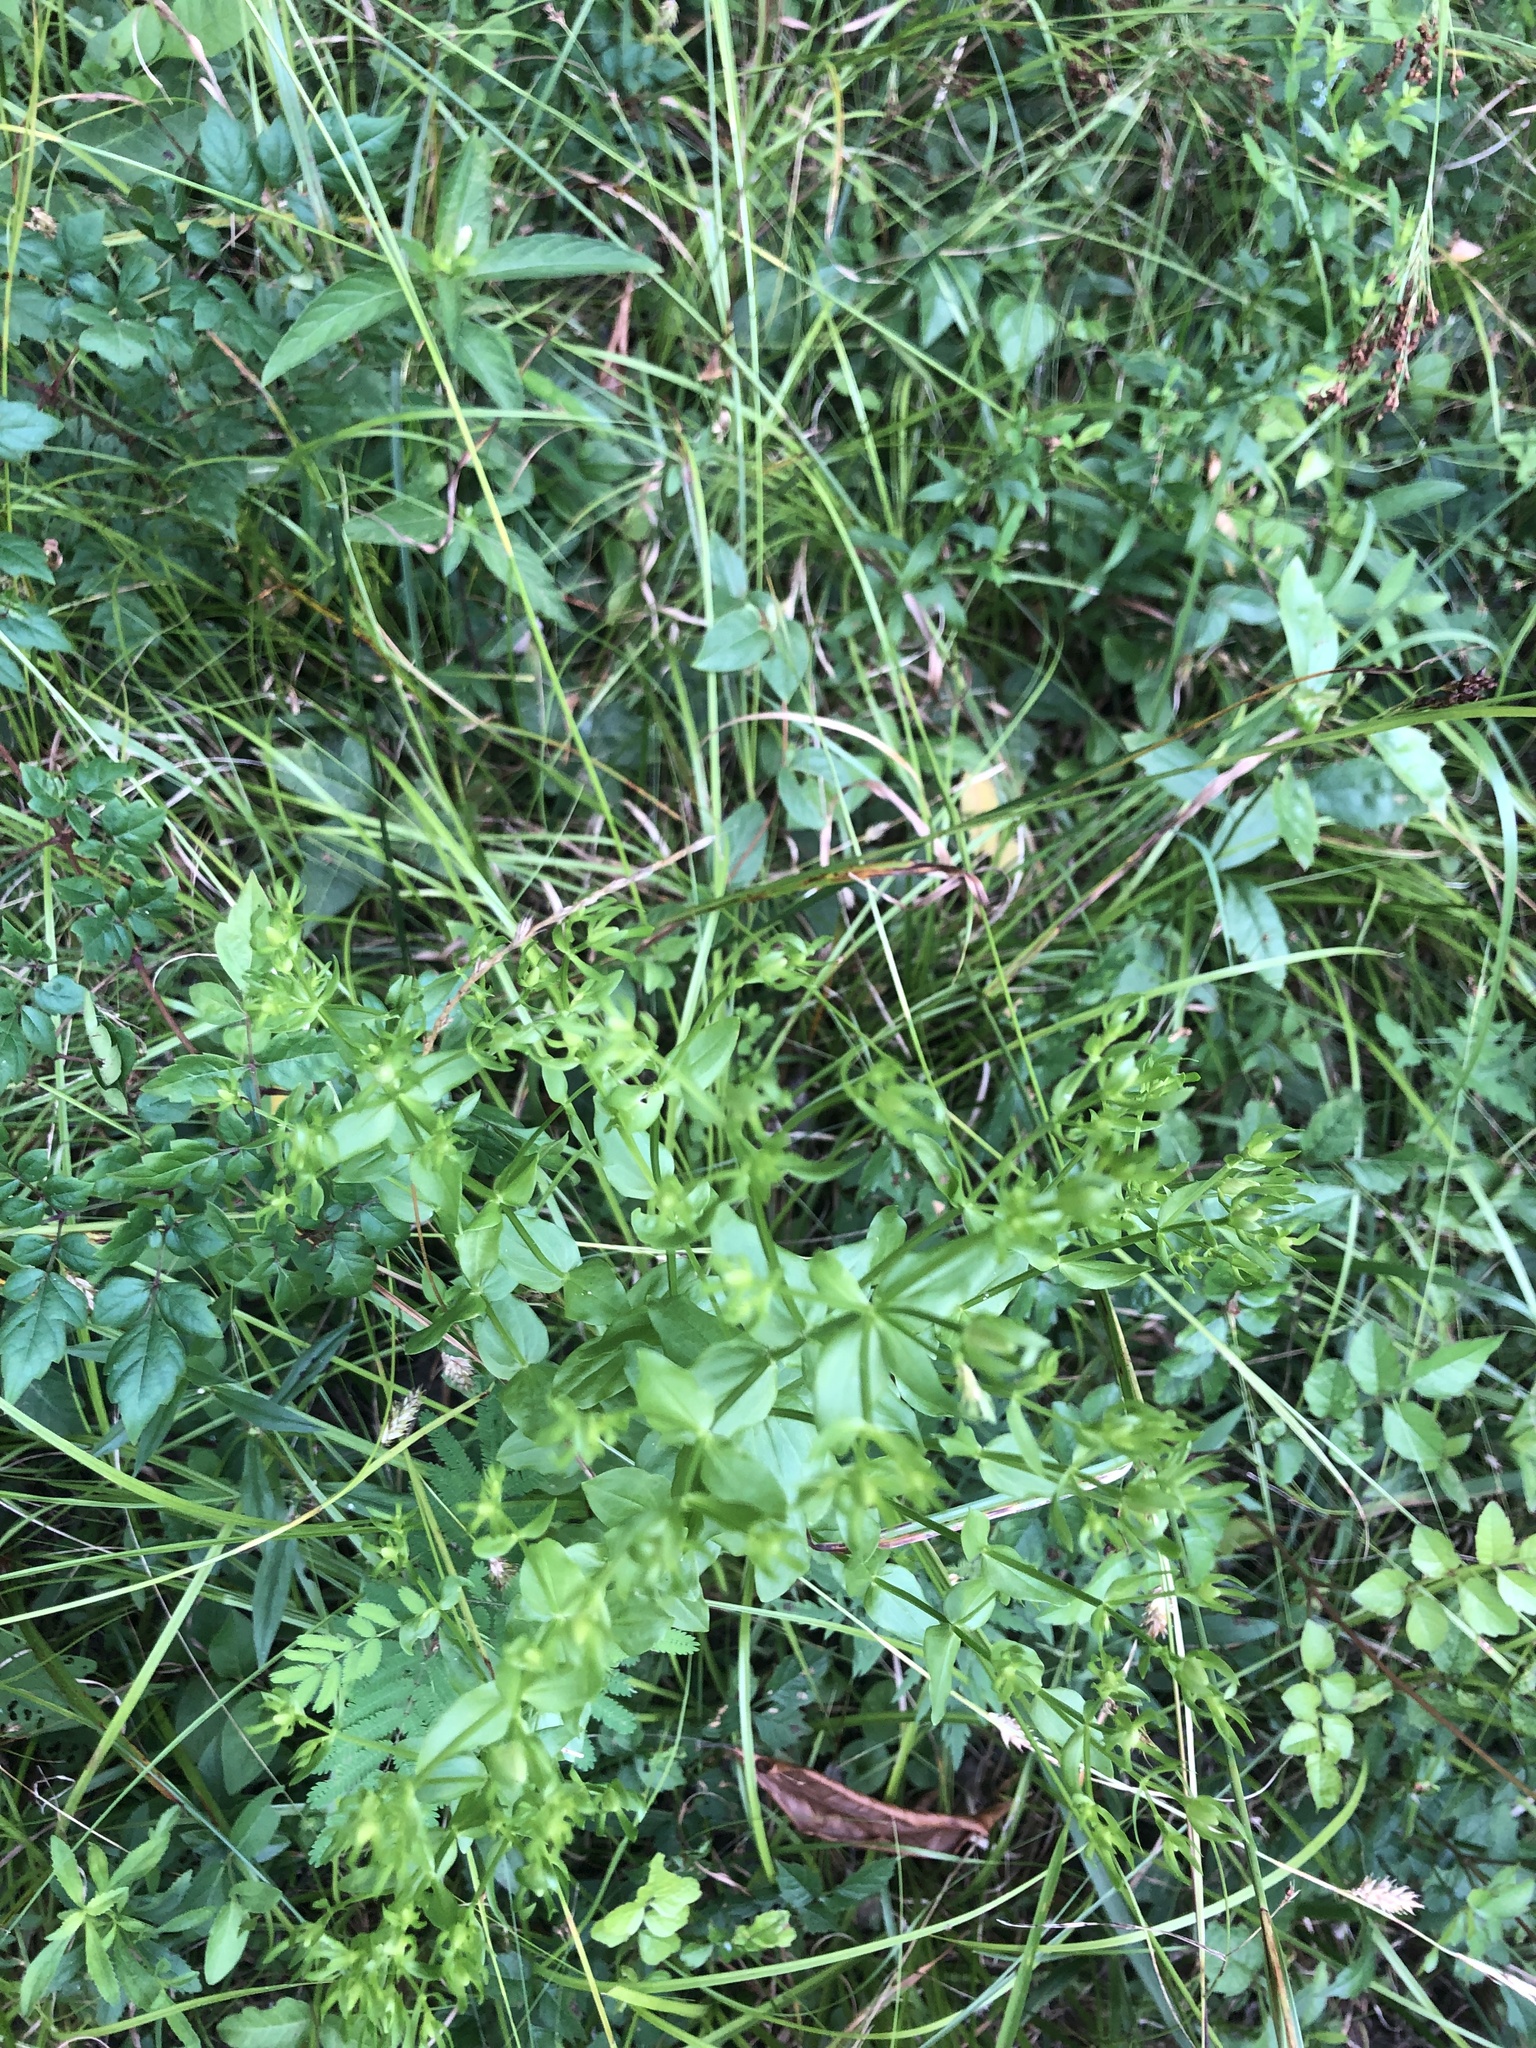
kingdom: Plantae
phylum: Tracheophyta
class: Magnoliopsida
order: Gentianales
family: Gentianaceae
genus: Sabatia
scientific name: Sabatia angularis
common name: Rose-pink
